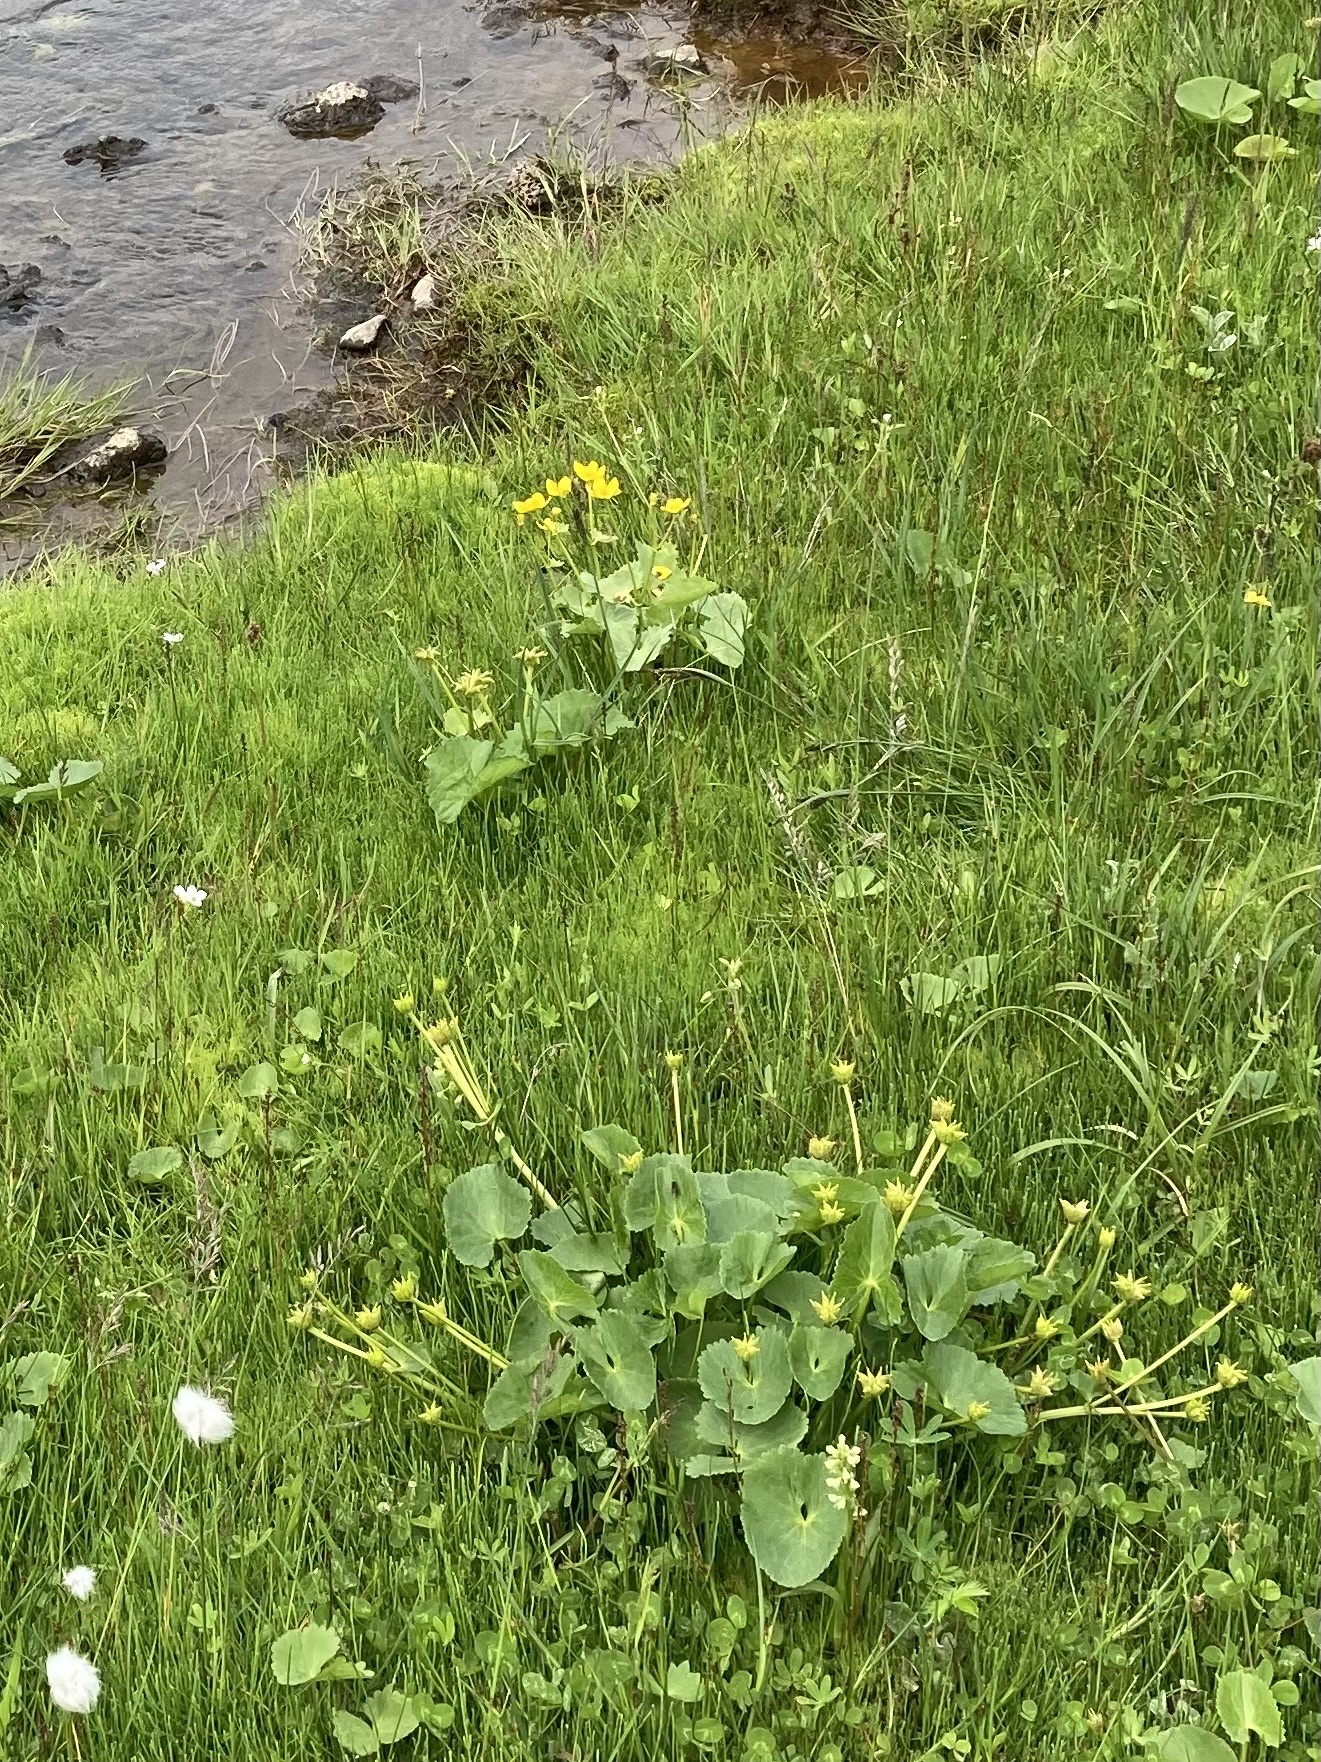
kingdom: Plantae
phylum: Tracheophyta
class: Magnoliopsida
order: Ranunculales
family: Ranunculaceae
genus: Caltha
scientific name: Caltha palustris
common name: Marsh marigold
